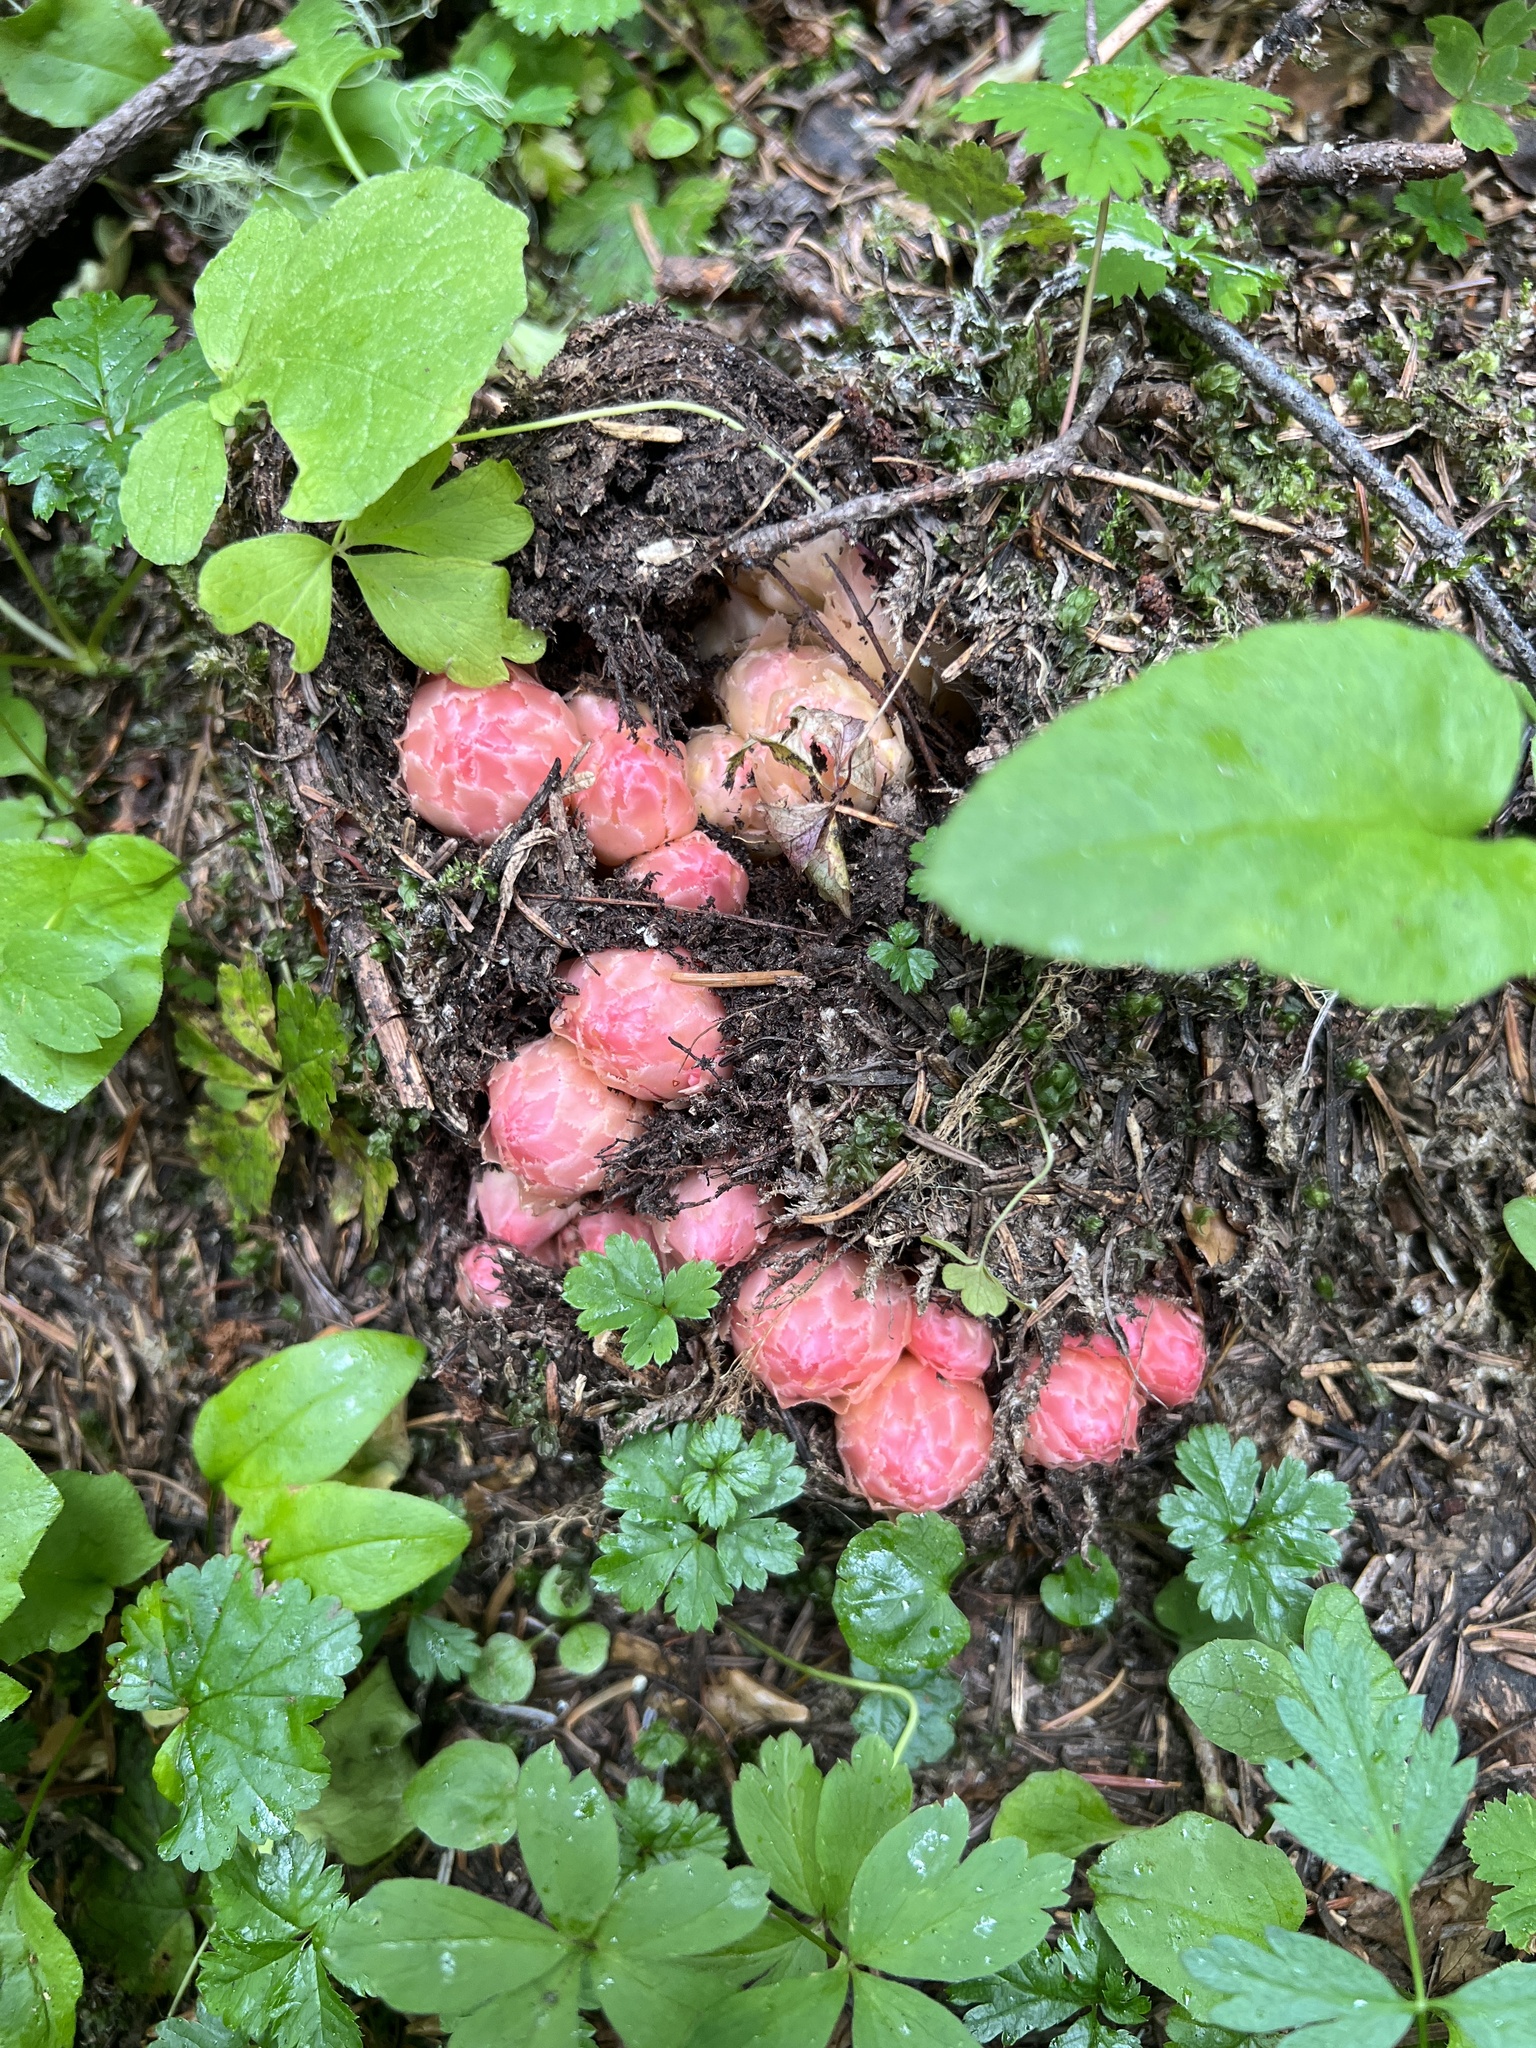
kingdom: Plantae
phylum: Tracheophyta
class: Magnoliopsida
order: Ericales
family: Ericaceae
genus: Hemitomes
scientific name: Hemitomes congestum
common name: Cone plant
